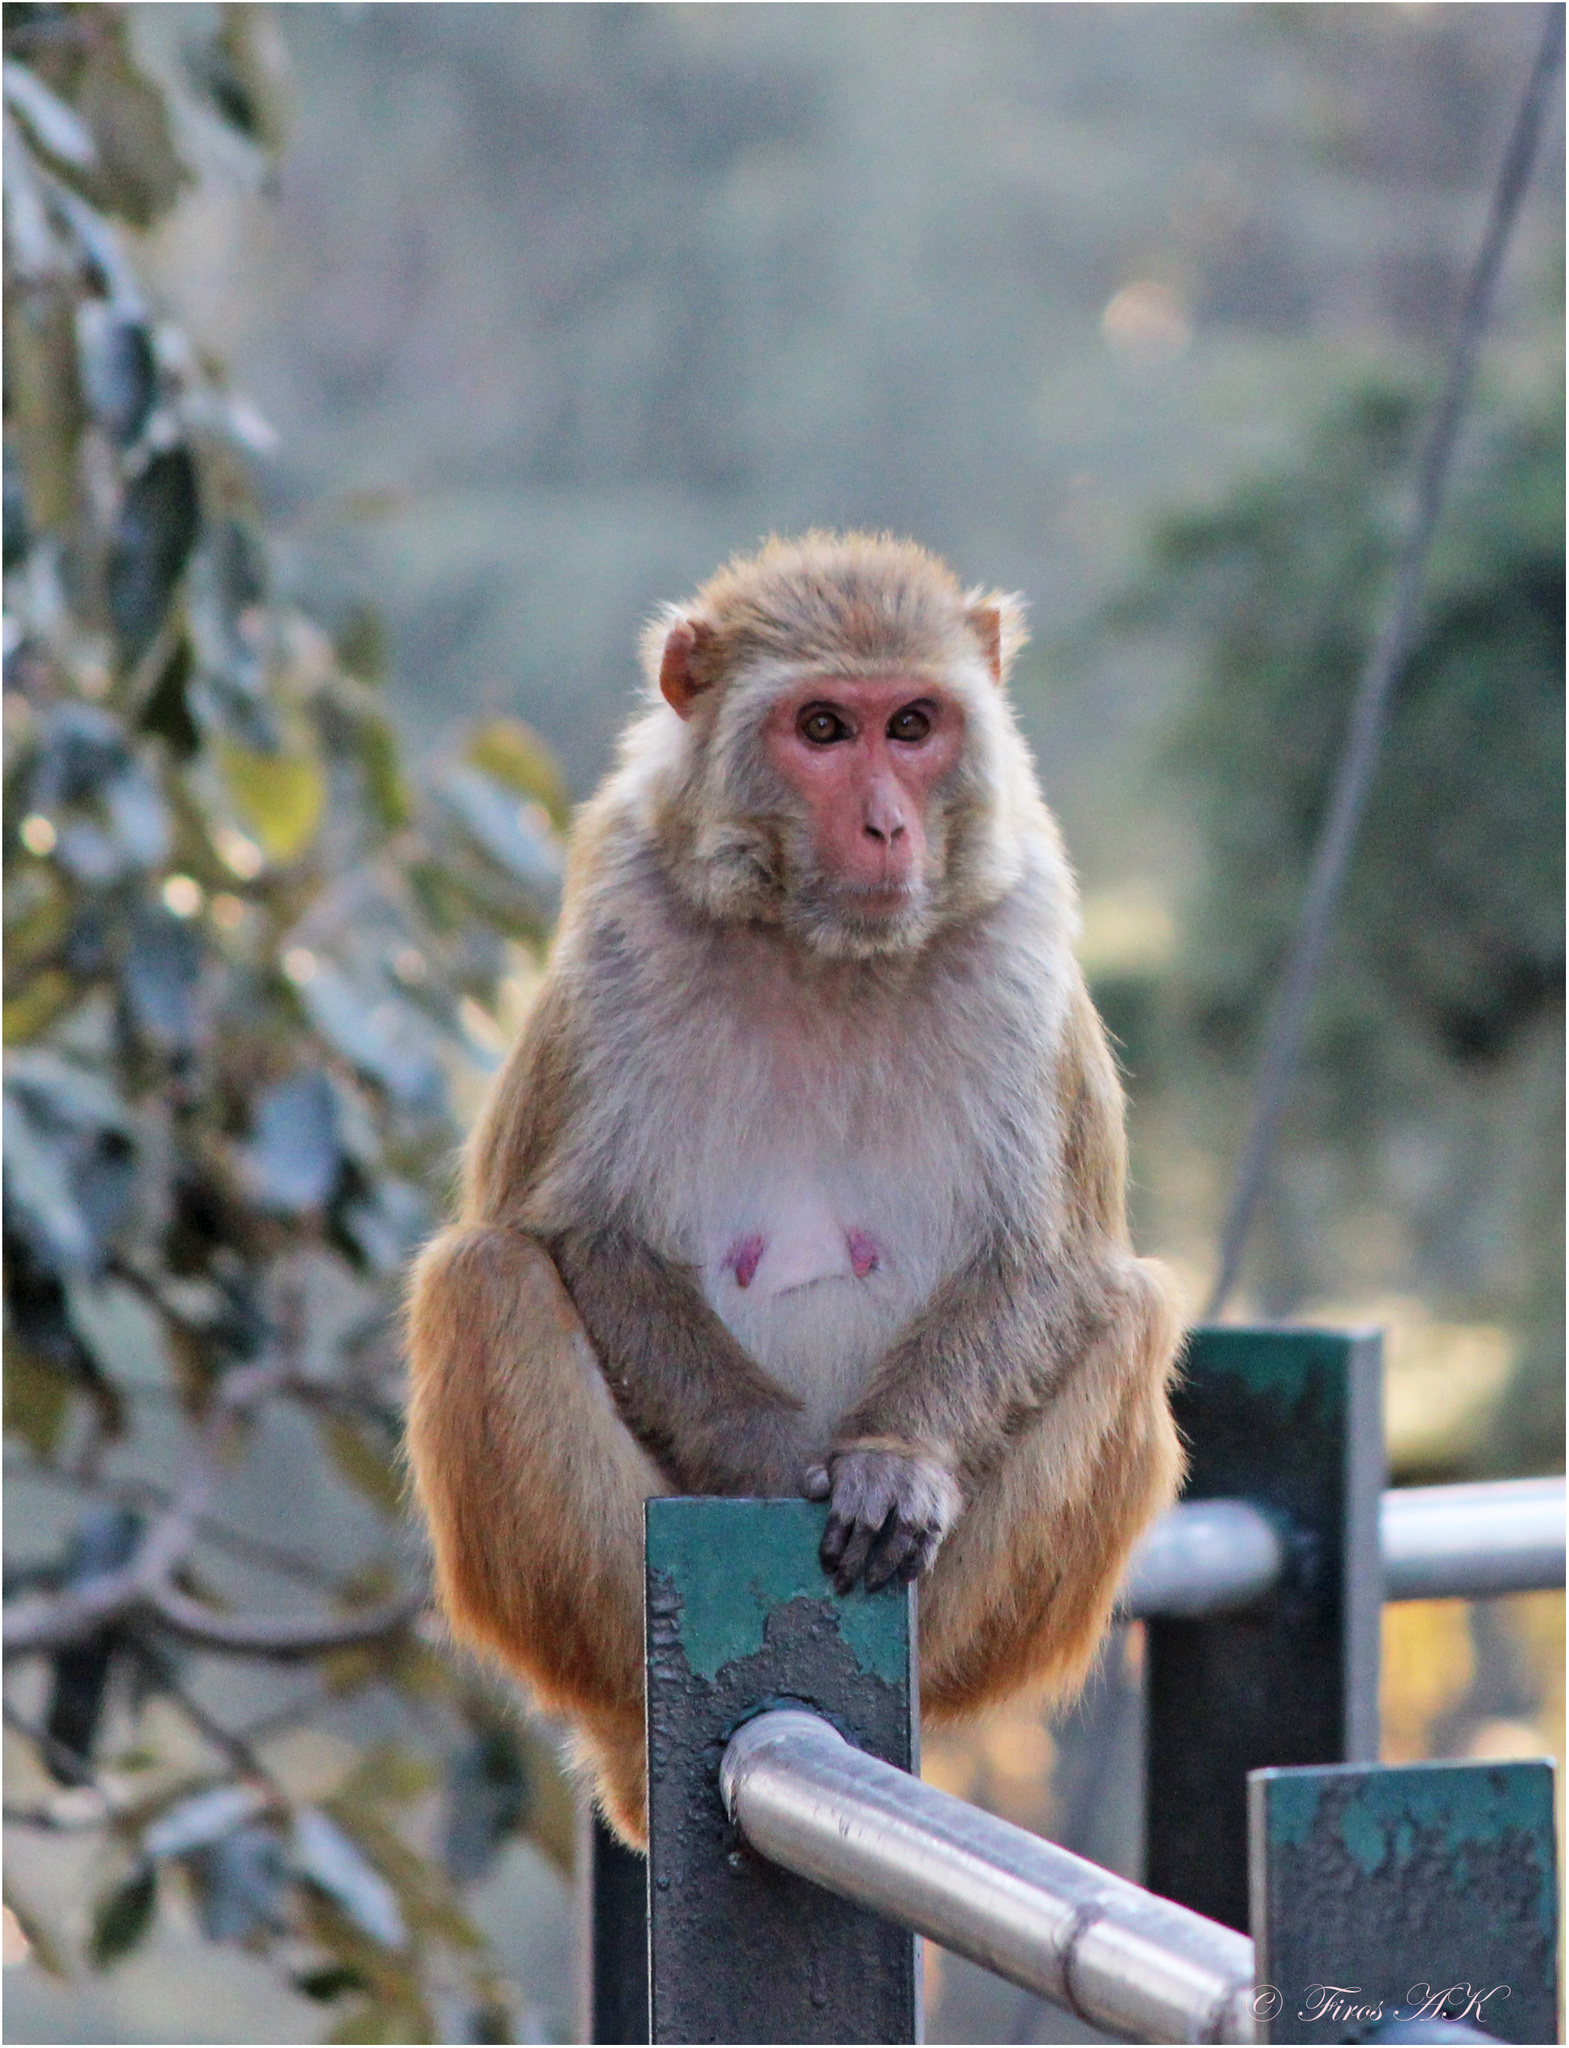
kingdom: Animalia
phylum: Chordata
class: Mammalia
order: Primates
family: Cercopithecidae
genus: Macaca
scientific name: Macaca mulatta
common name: Rhesus monkey
